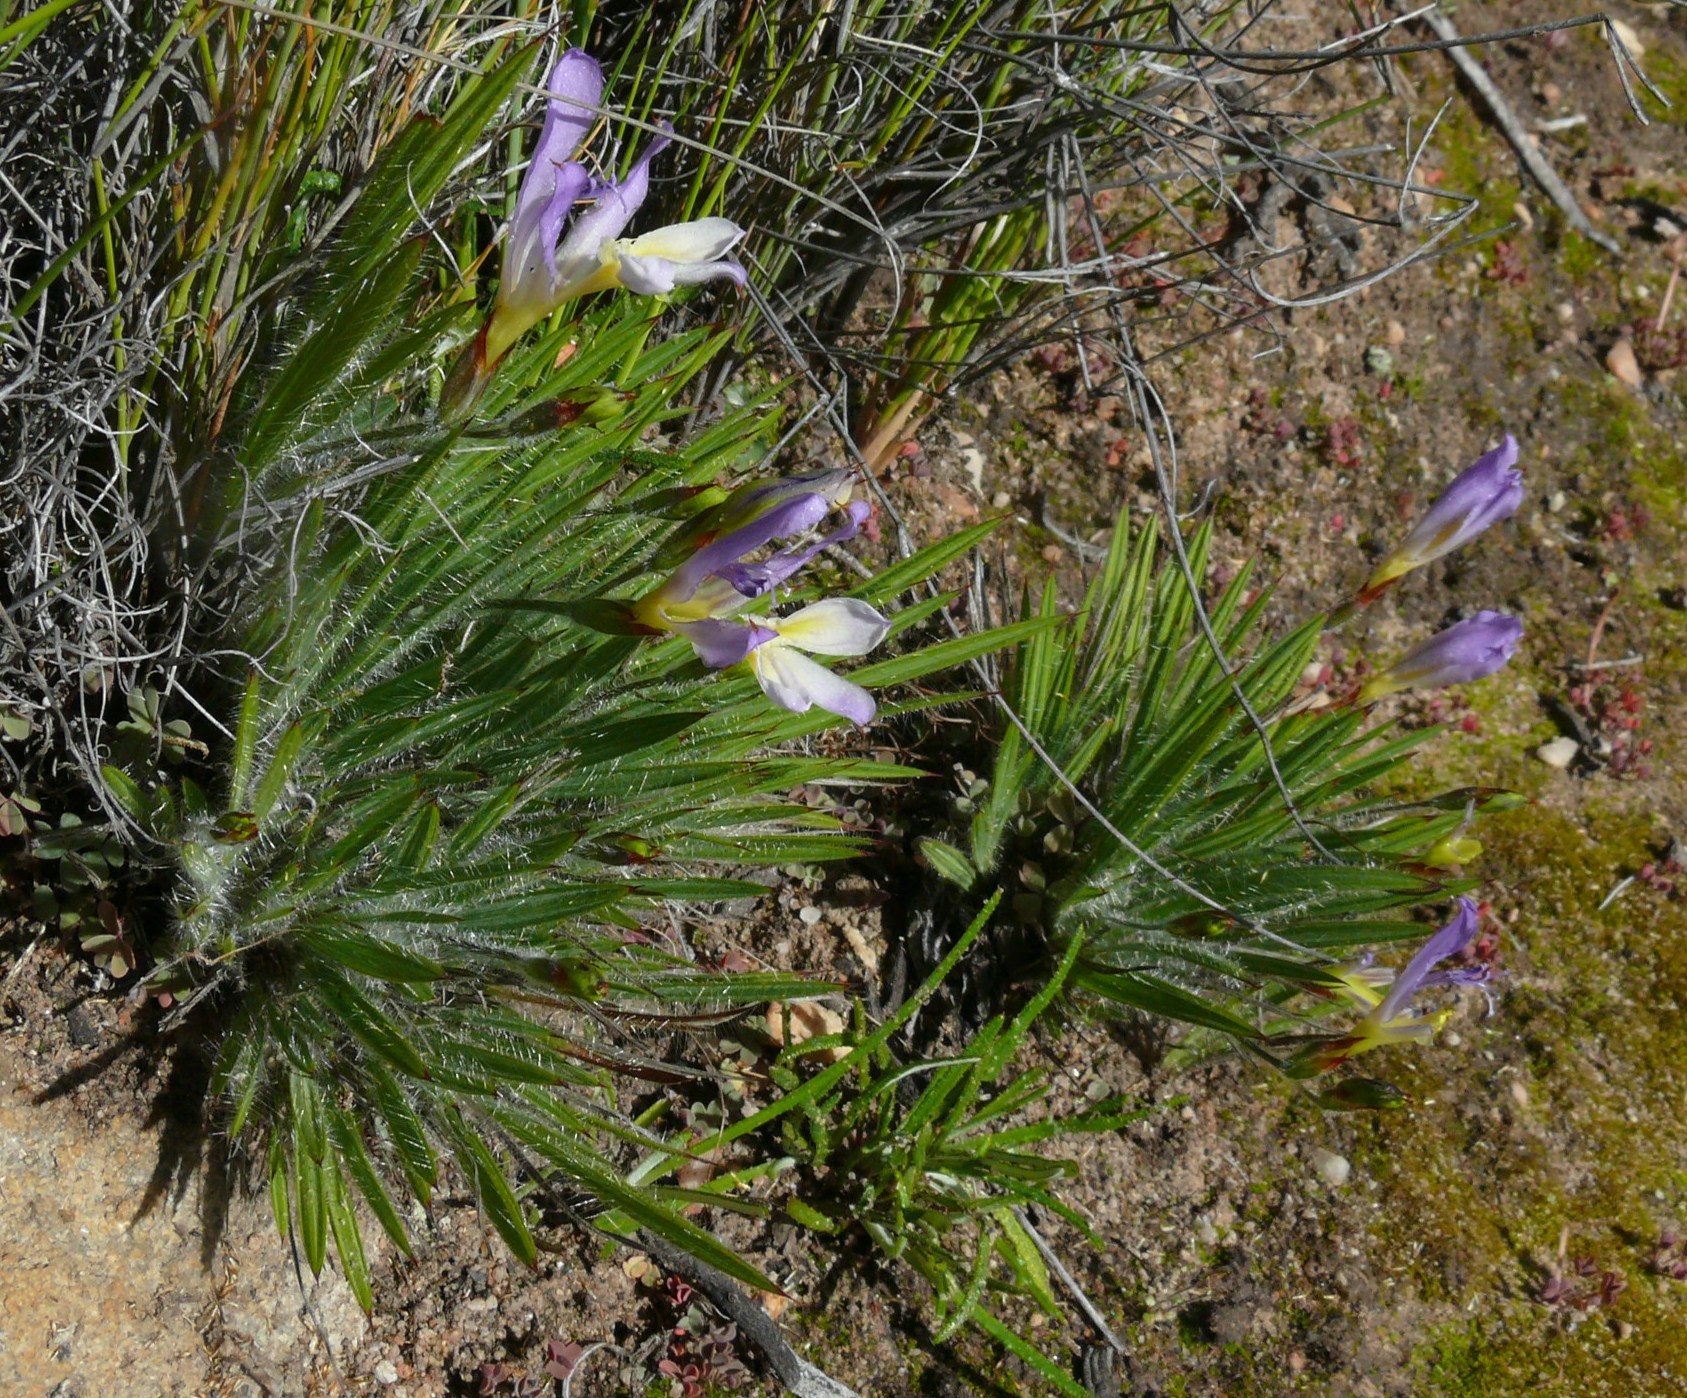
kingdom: Plantae
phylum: Tracheophyta
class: Liliopsida
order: Asparagales
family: Iridaceae
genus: Babiana
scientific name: Babiana auriculata
